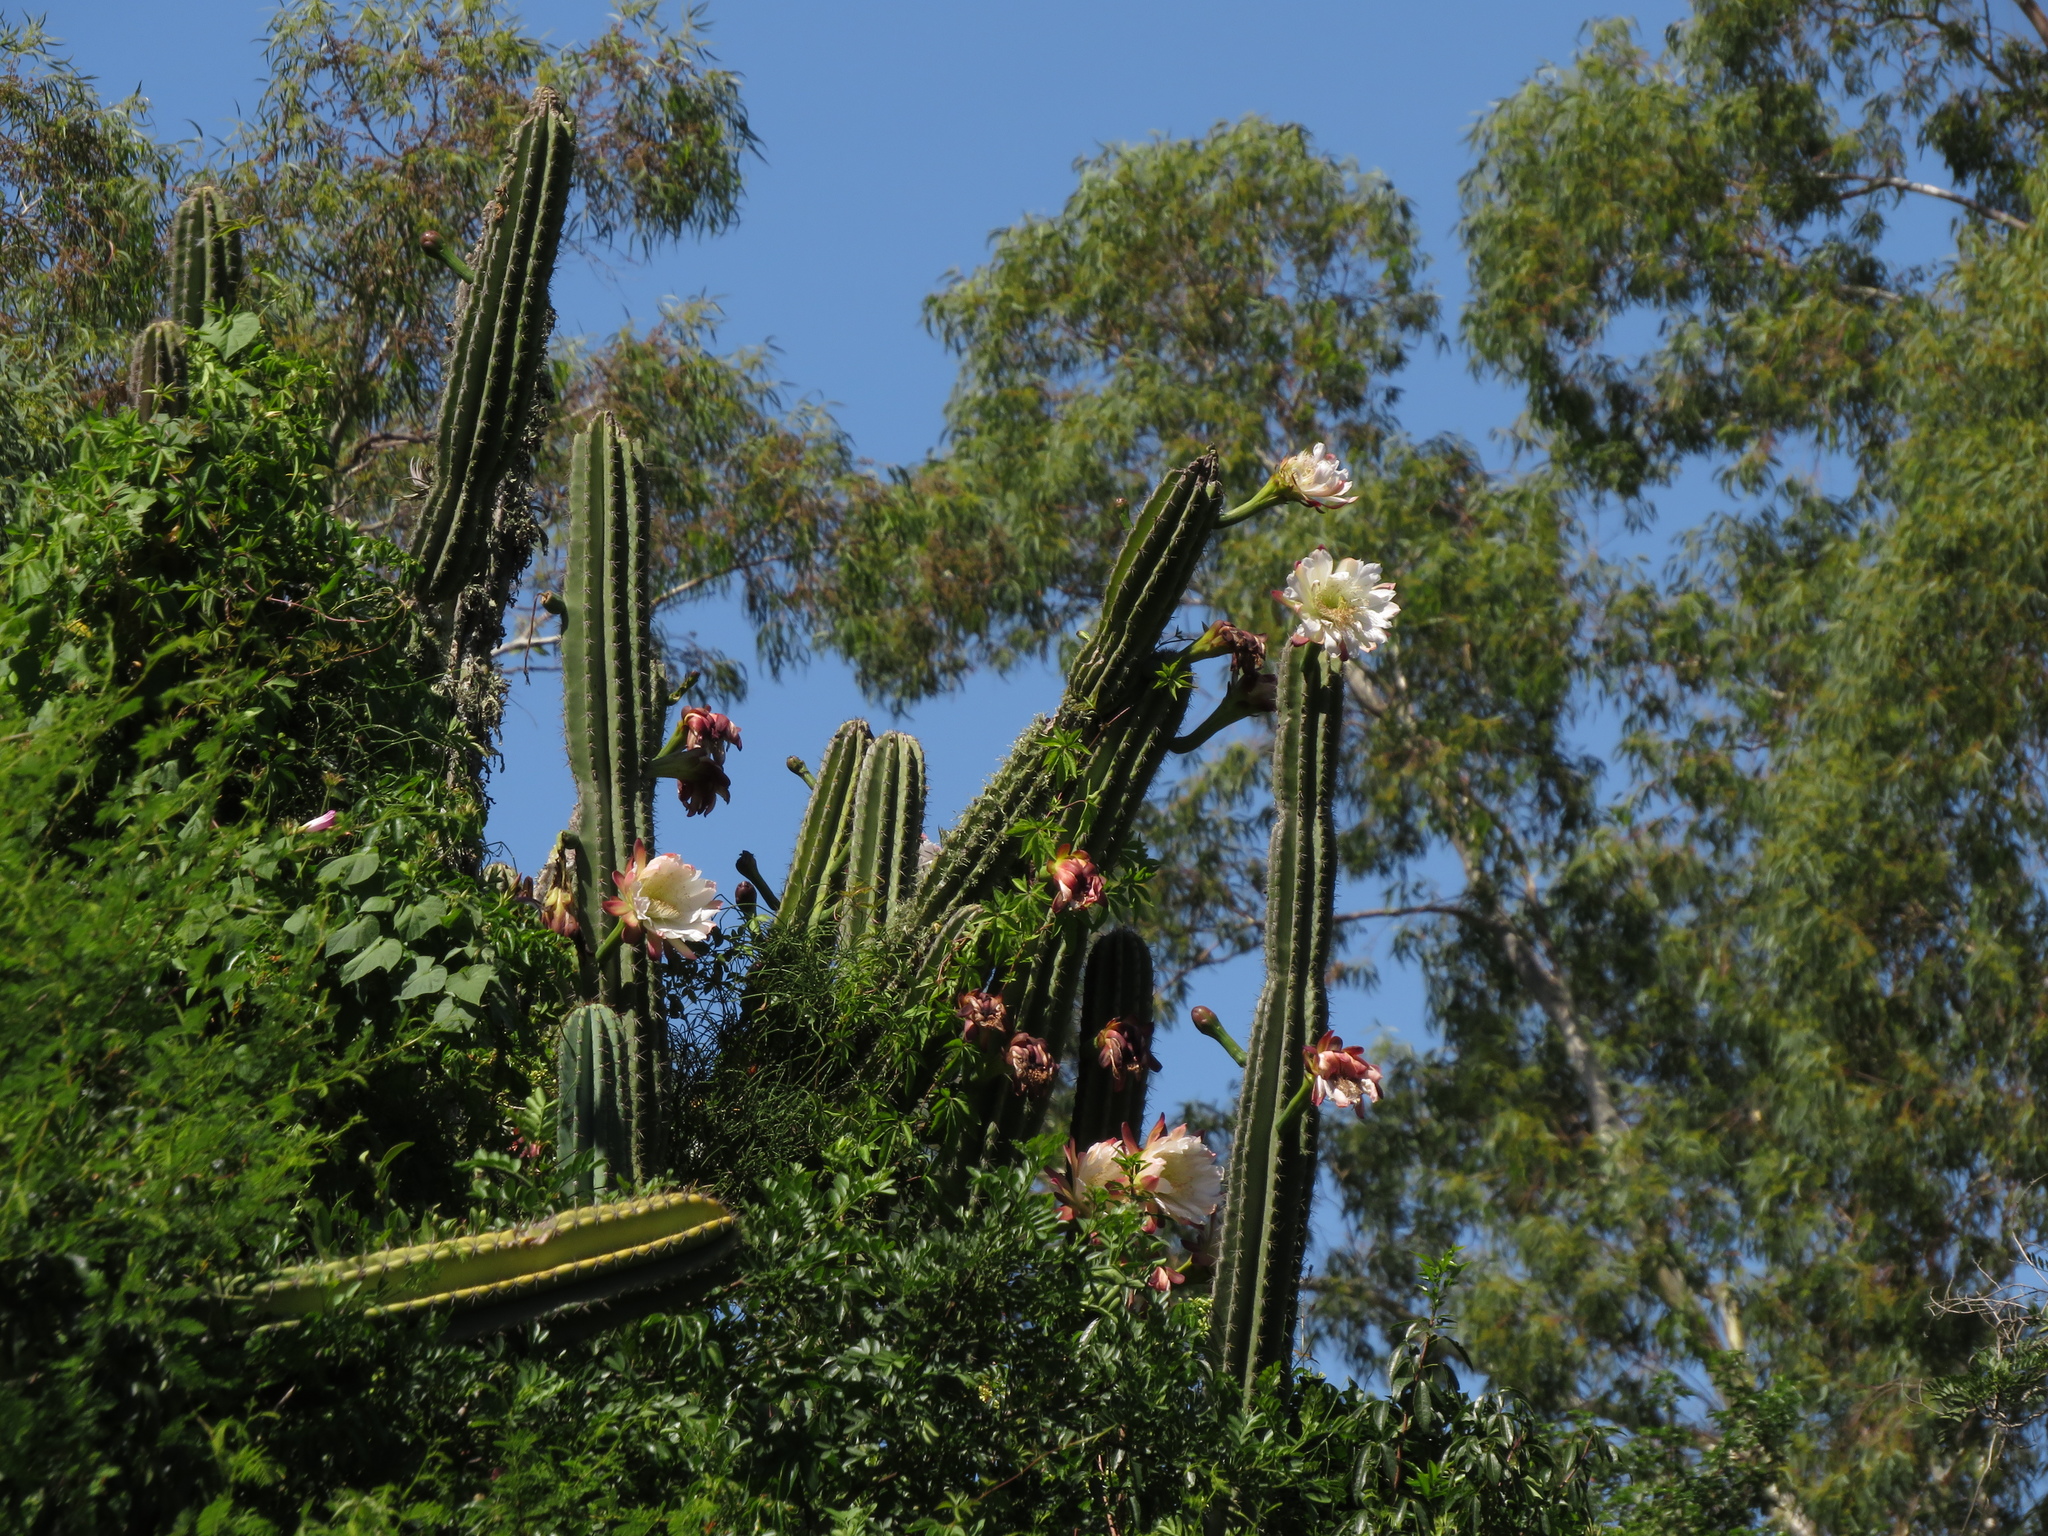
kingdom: Plantae
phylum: Tracheophyta
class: Magnoliopsida
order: Caryophyllales
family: Cactaceae
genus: Cereus
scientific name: Cereus hildmannianus
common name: Hedge cactus
